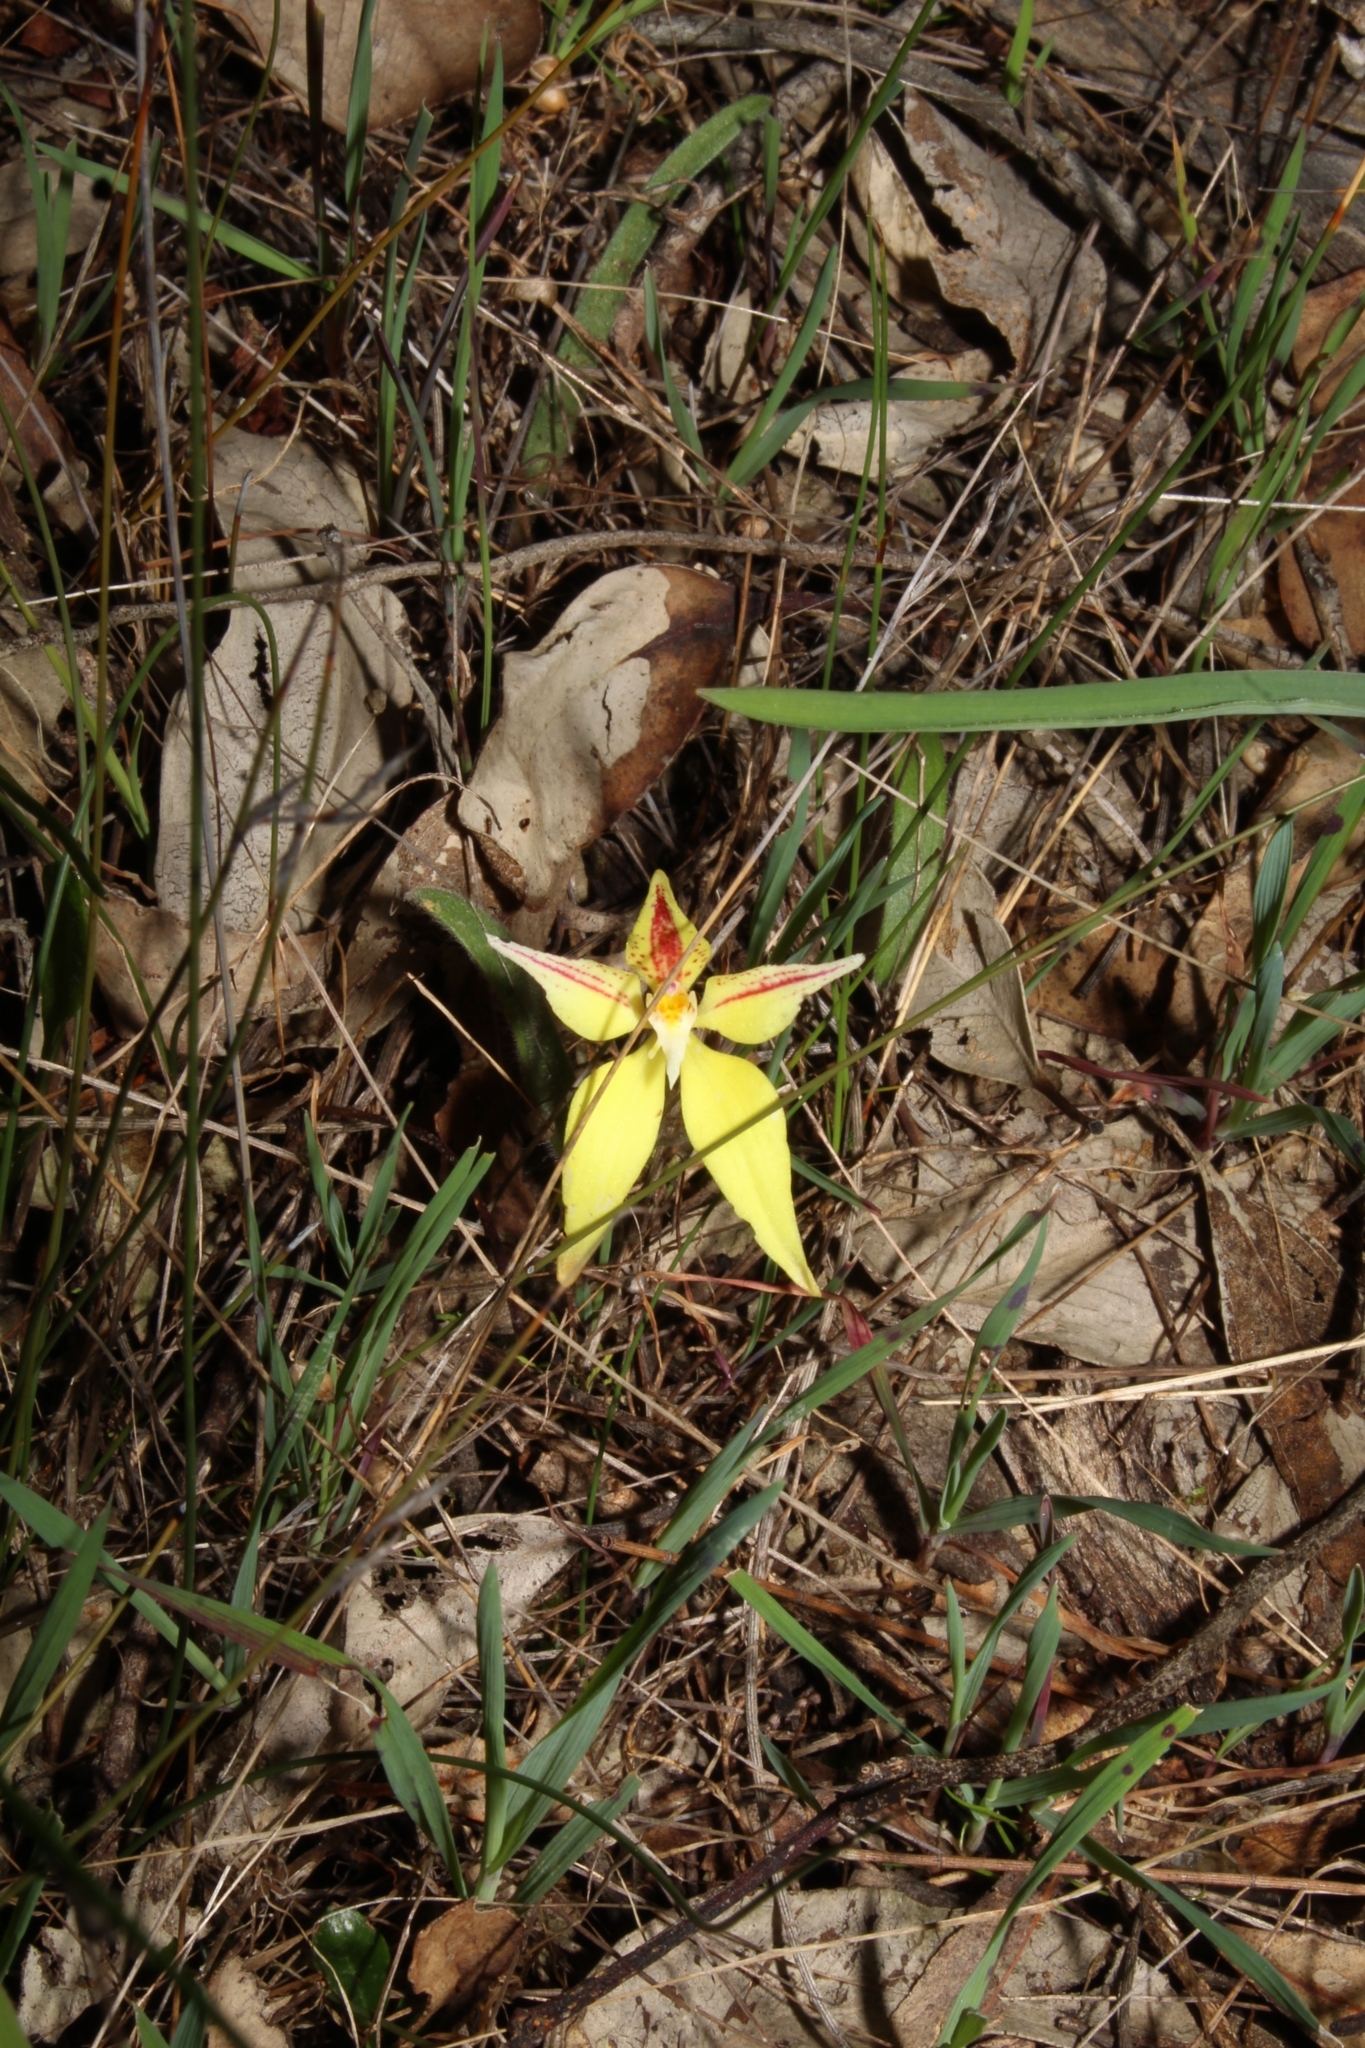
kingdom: Plantae
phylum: Tracheophyta
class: Liliopsida
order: Asparagales
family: Orchidaceae
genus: Caladenia
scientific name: Caladenia flava
